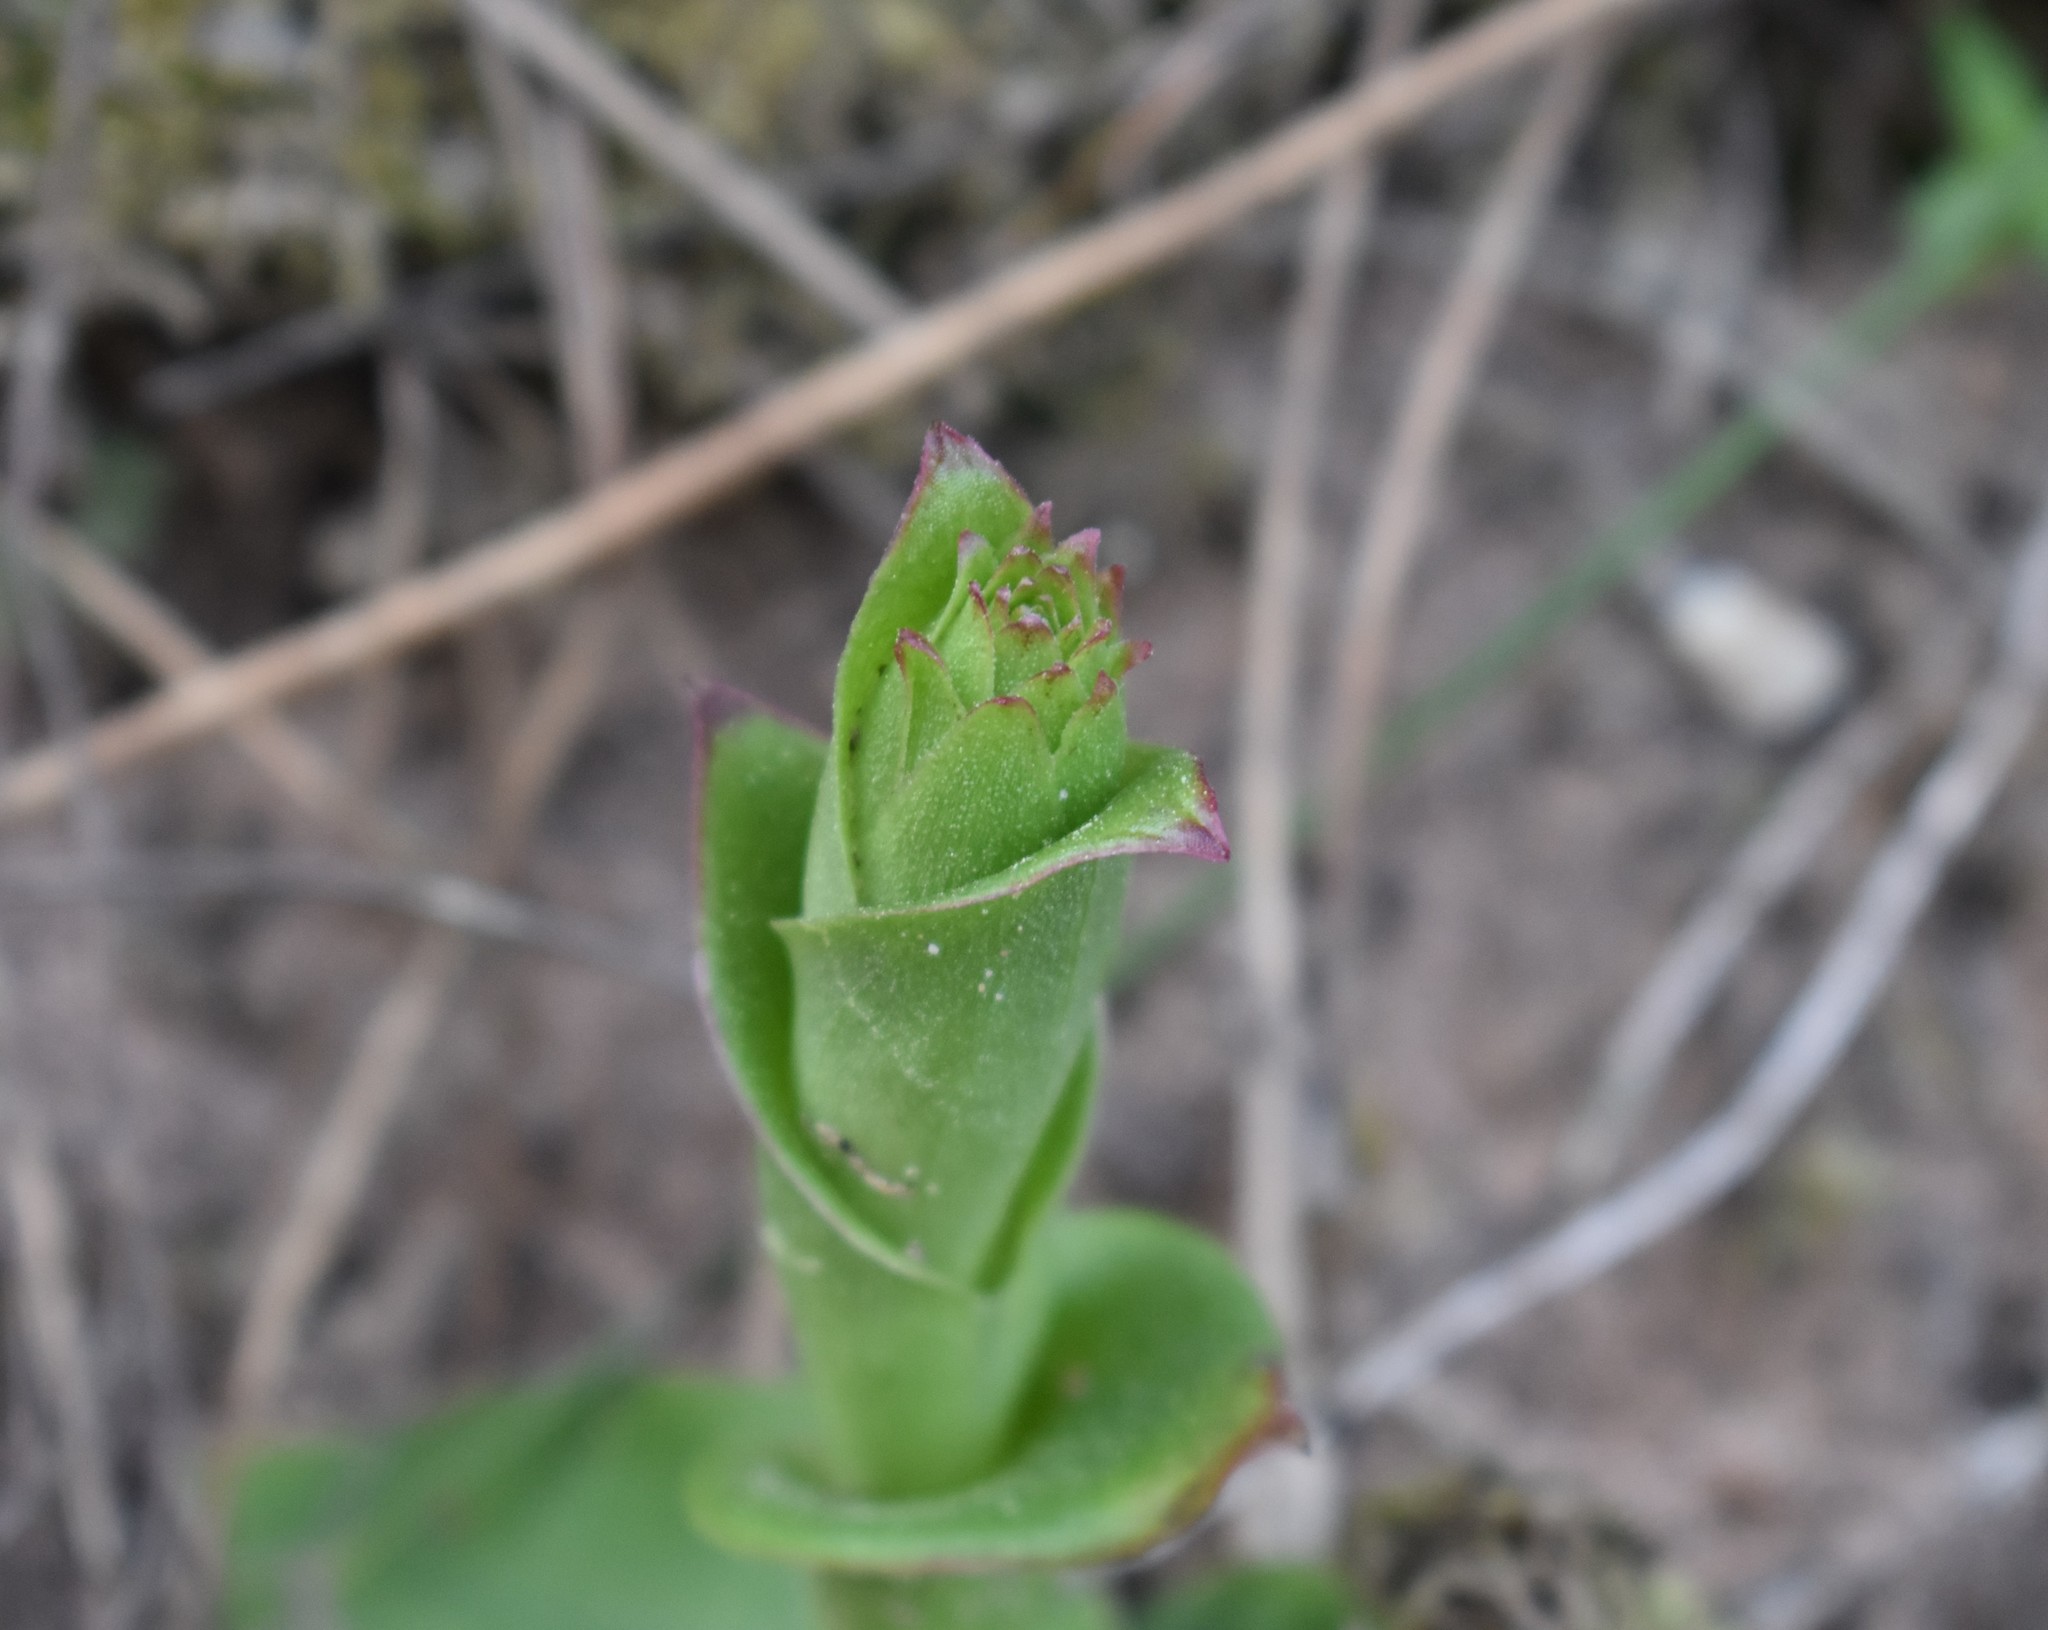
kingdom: Plantae
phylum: Tracheophyta
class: Liliopsida
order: Asparagales
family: Orchidaceae
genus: Satyrium
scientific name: Satyrium acuminatum
